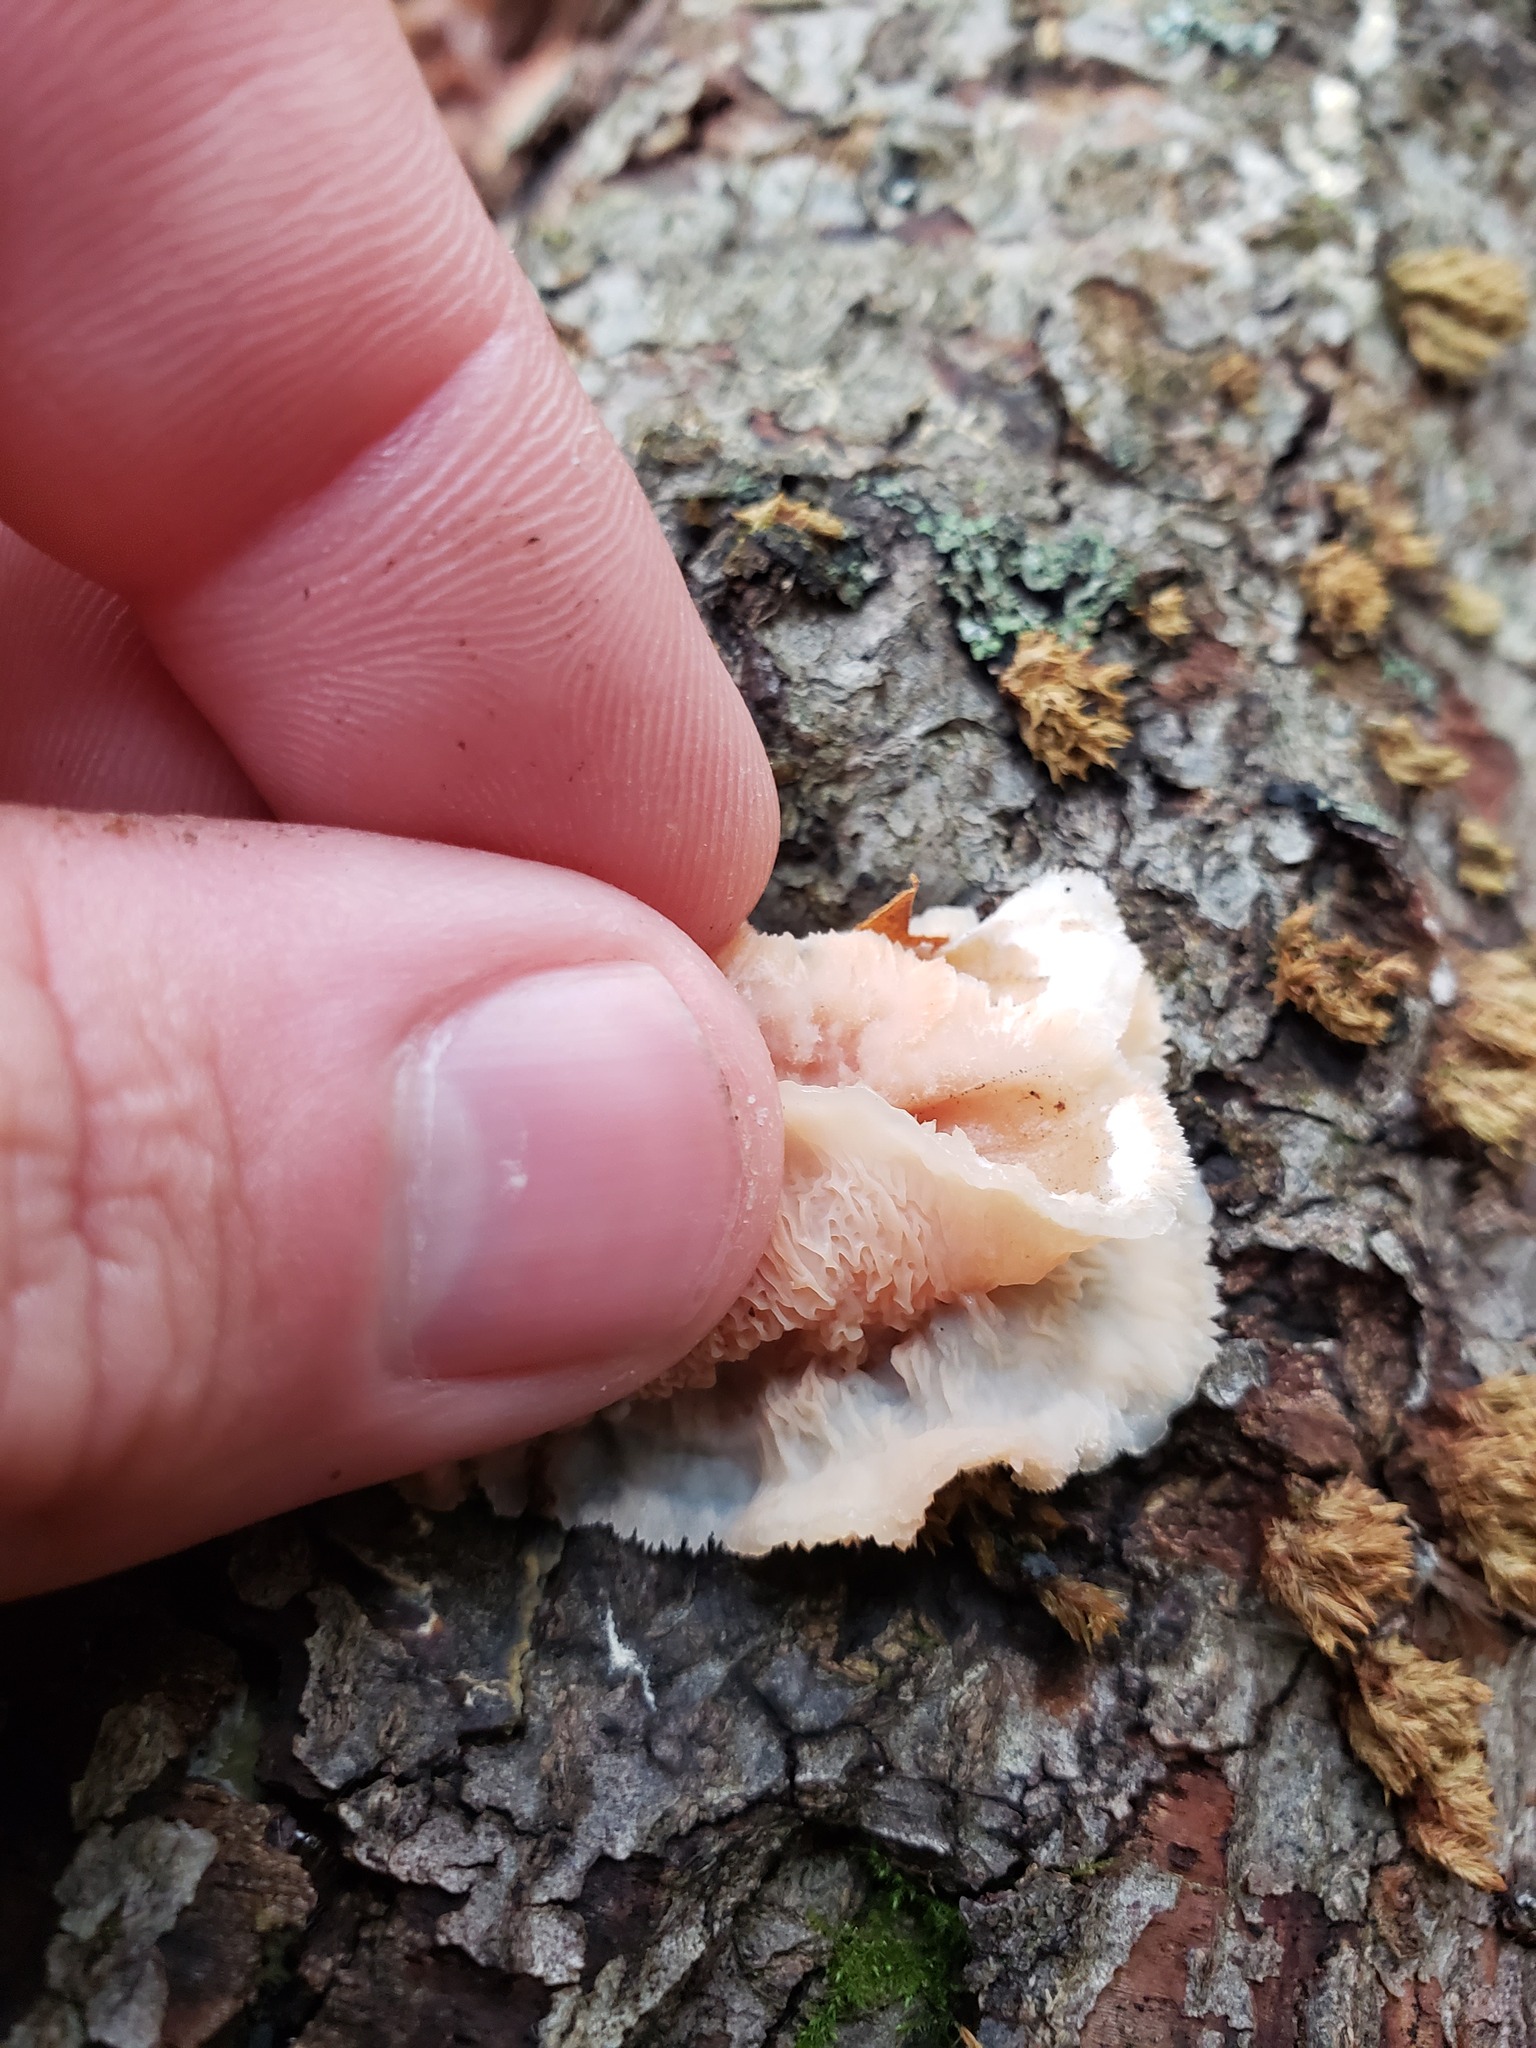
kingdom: Fungi
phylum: Basidiomycota
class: Agaricomycetes
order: Polyporales
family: Meruliaceae
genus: Phlebia
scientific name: Phlebia tremellosa
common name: Jelly rot
